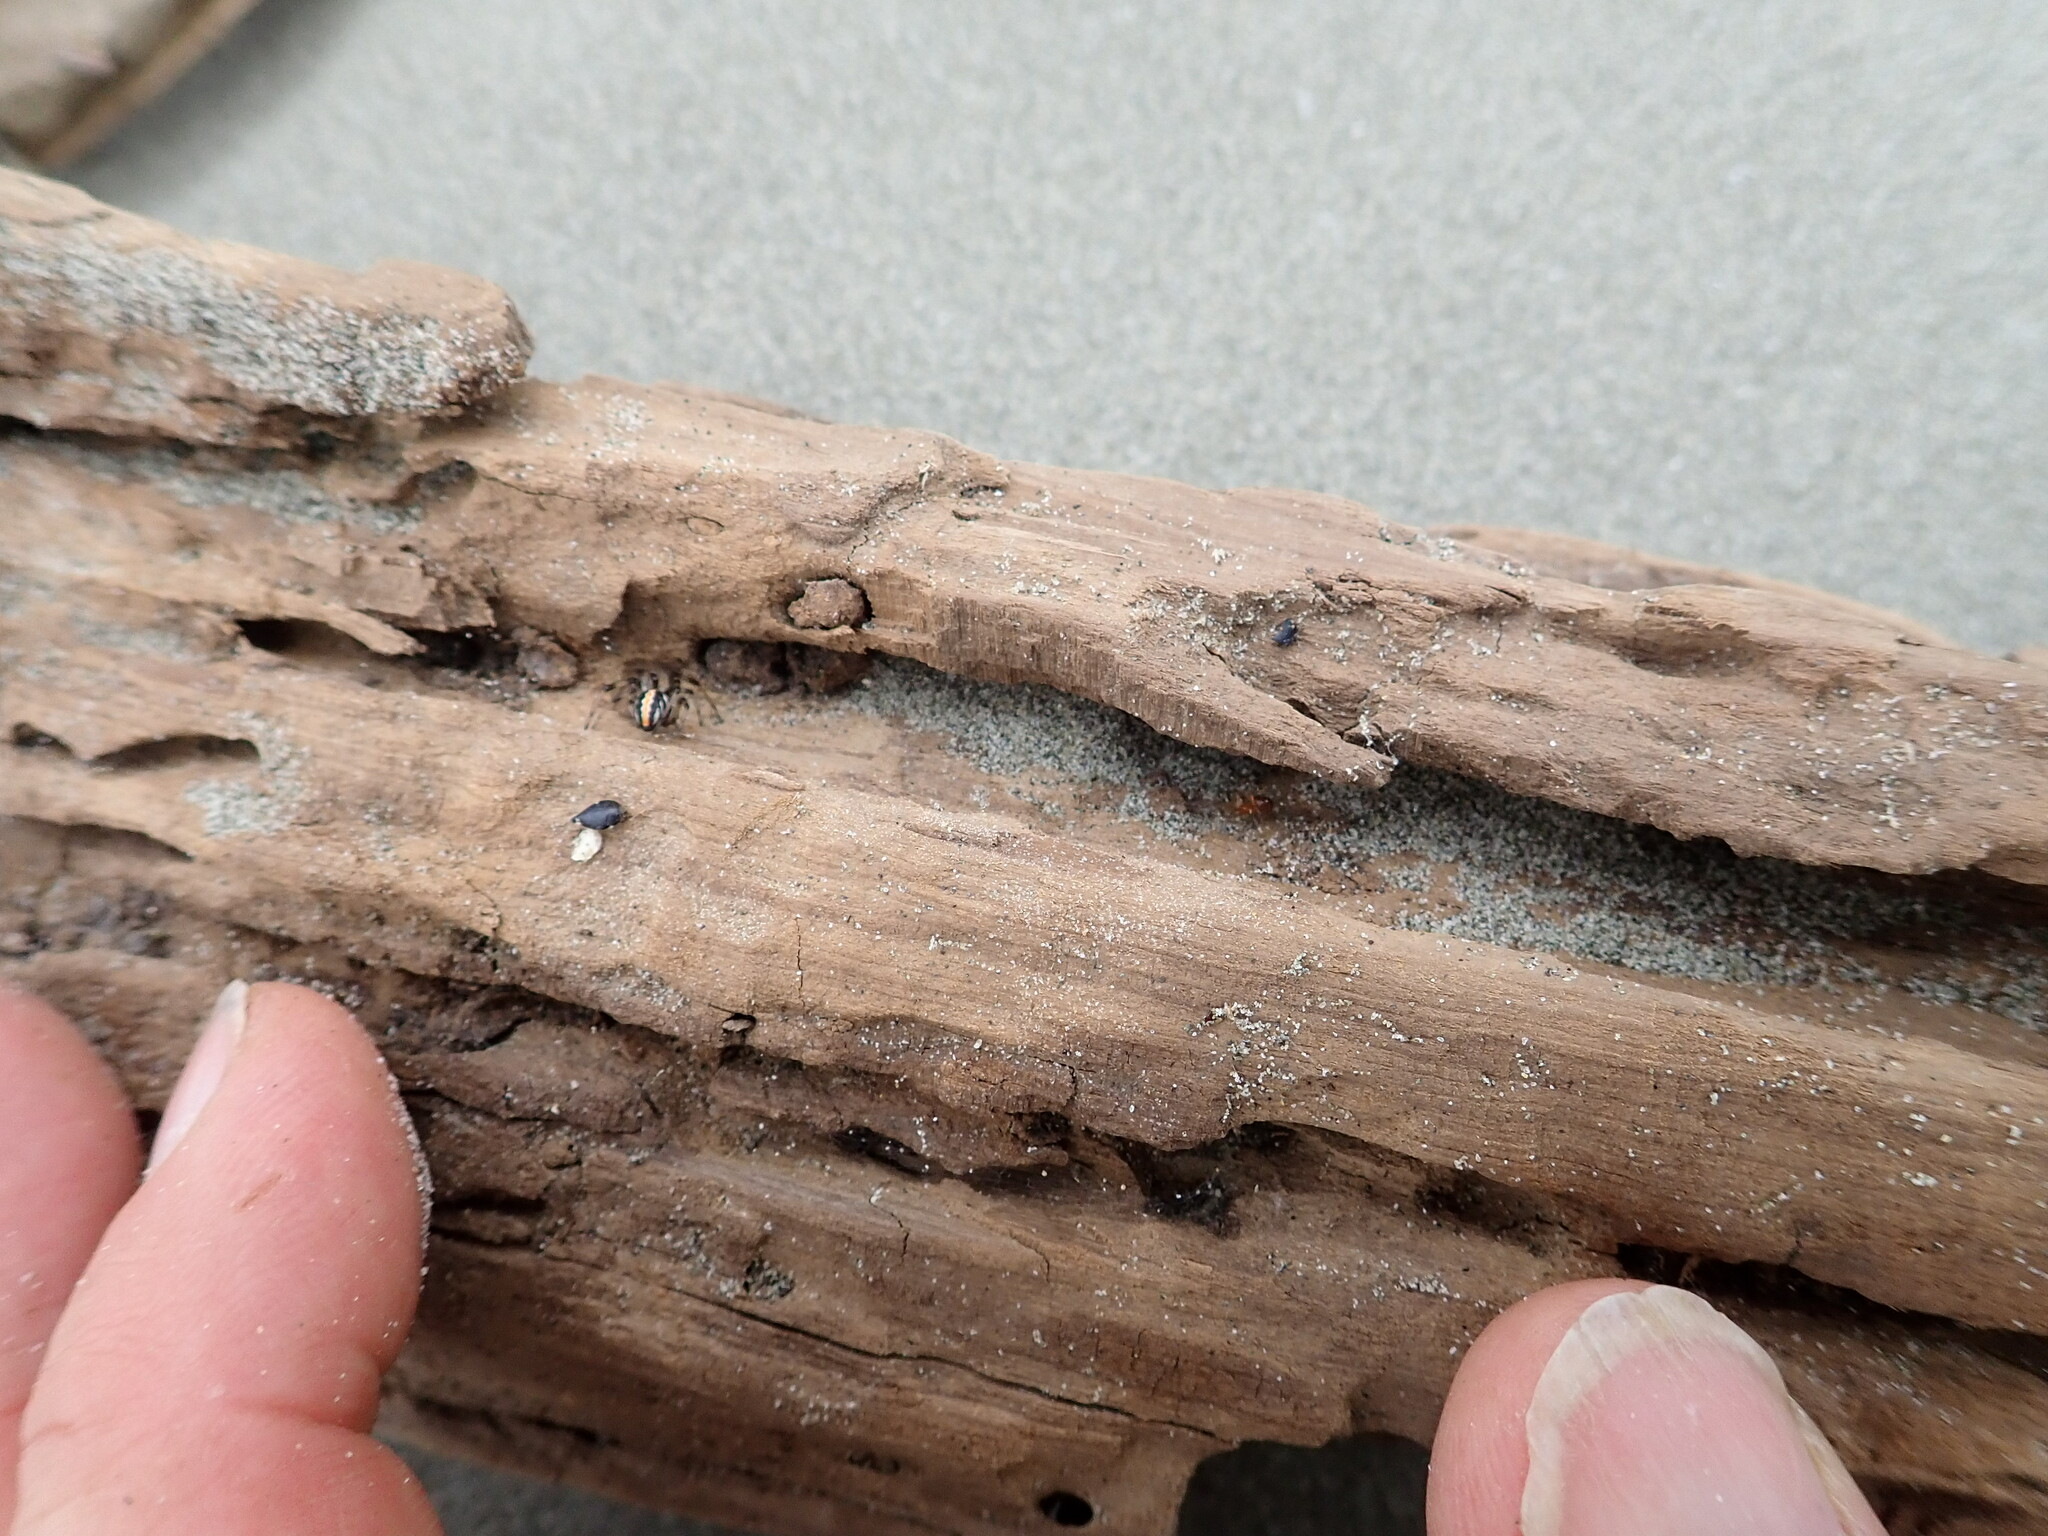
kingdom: Animalia
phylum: Arthropoda
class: Arachnida
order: Araneae
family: Theridiidae
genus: Latrodectus
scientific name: Latrodectus katipo
